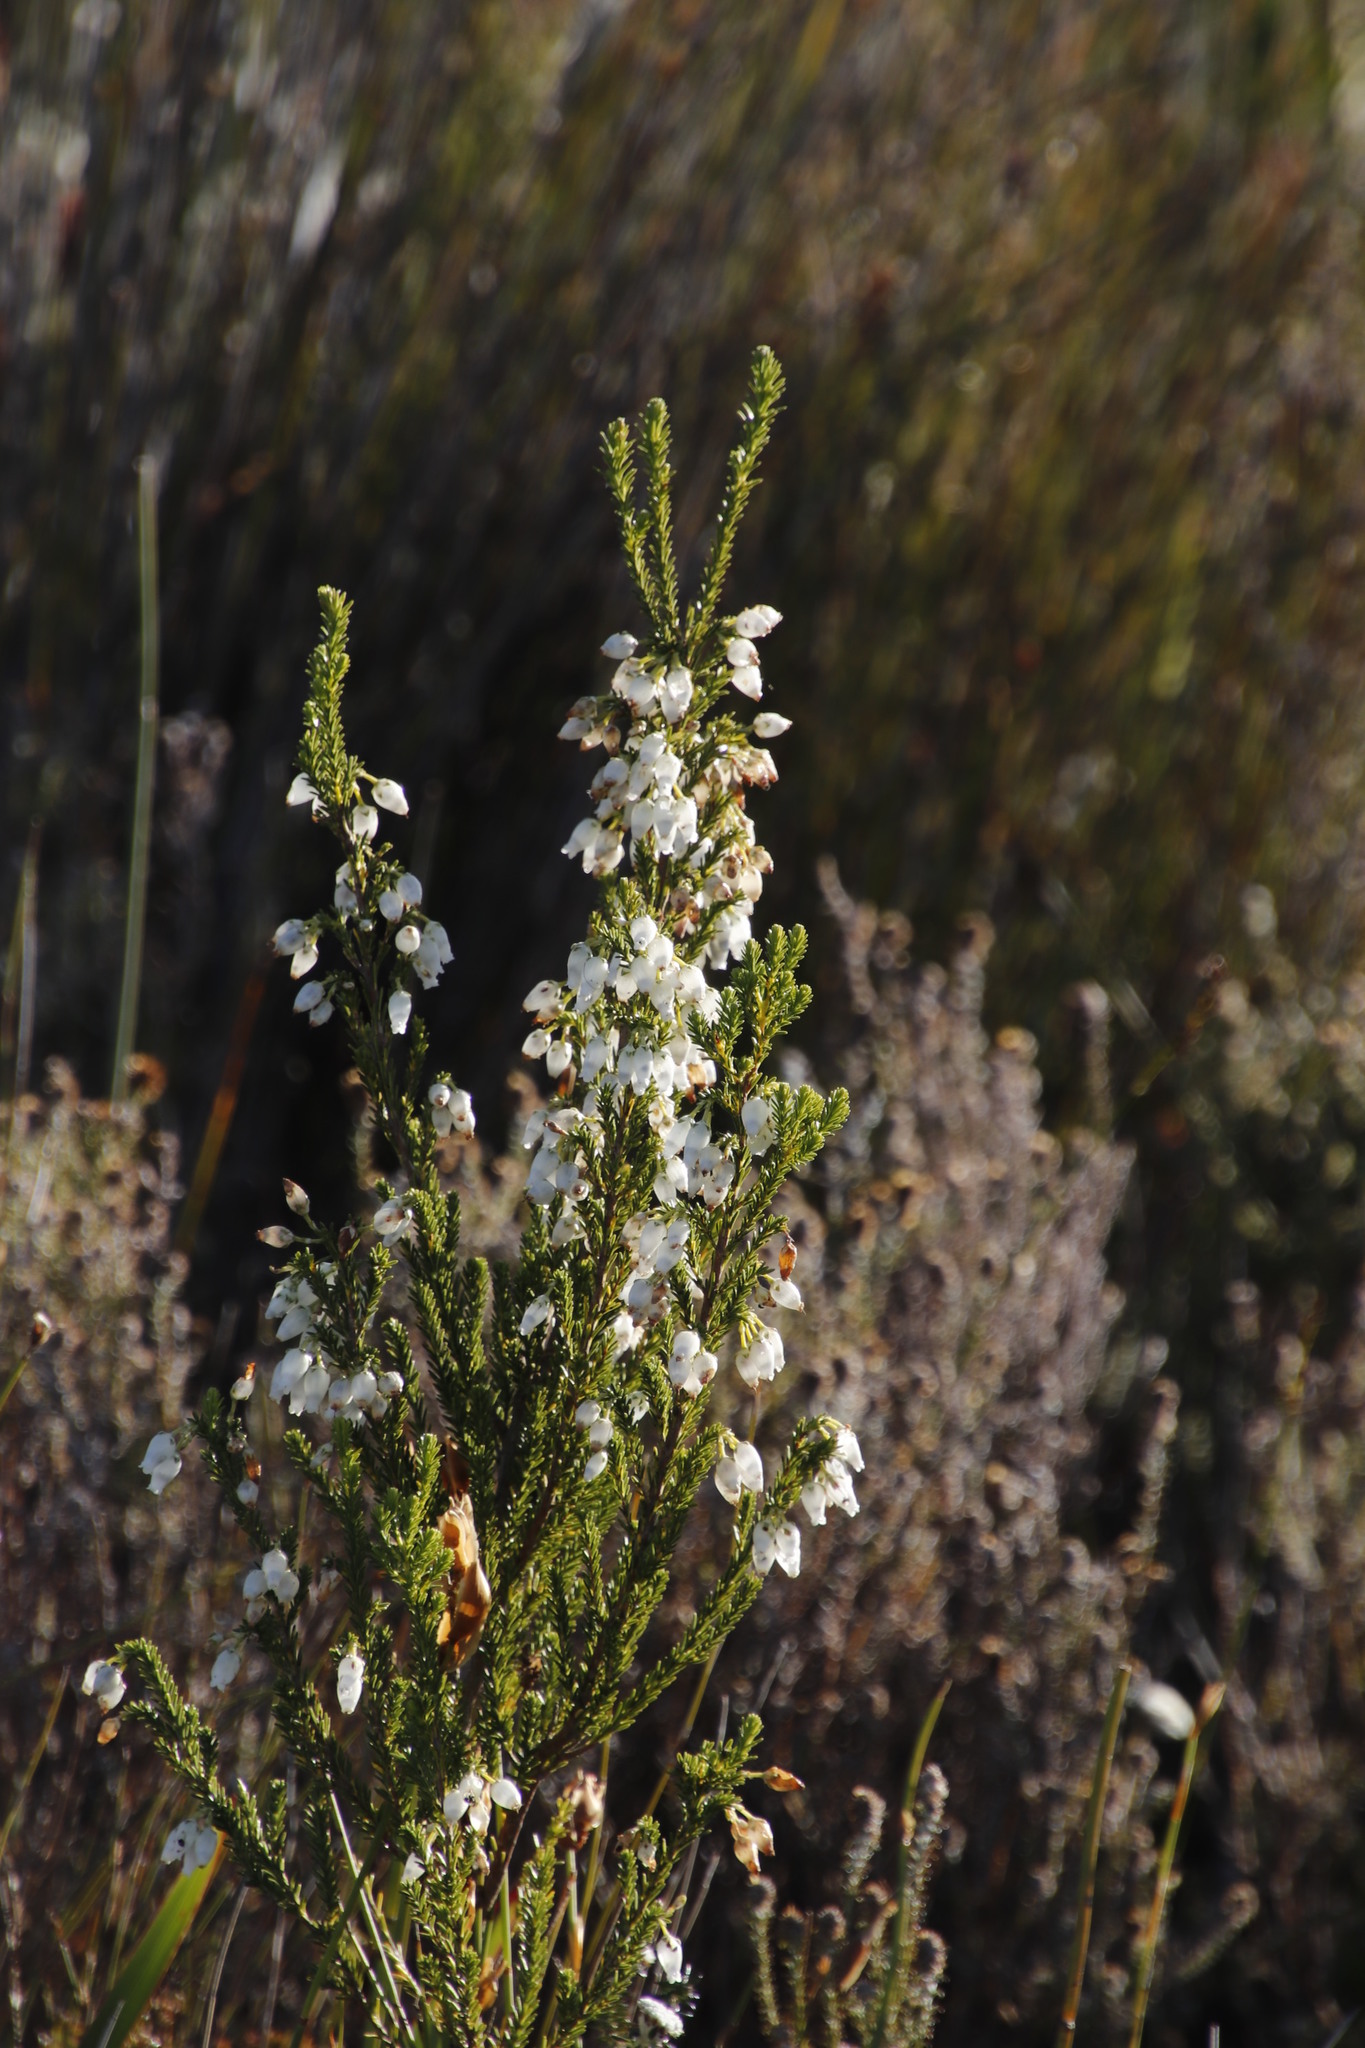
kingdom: Plantae
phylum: Tracheophyta
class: Magnoliopsida
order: Ericales
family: Ericaceae
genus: Erica
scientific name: Erica physodes
